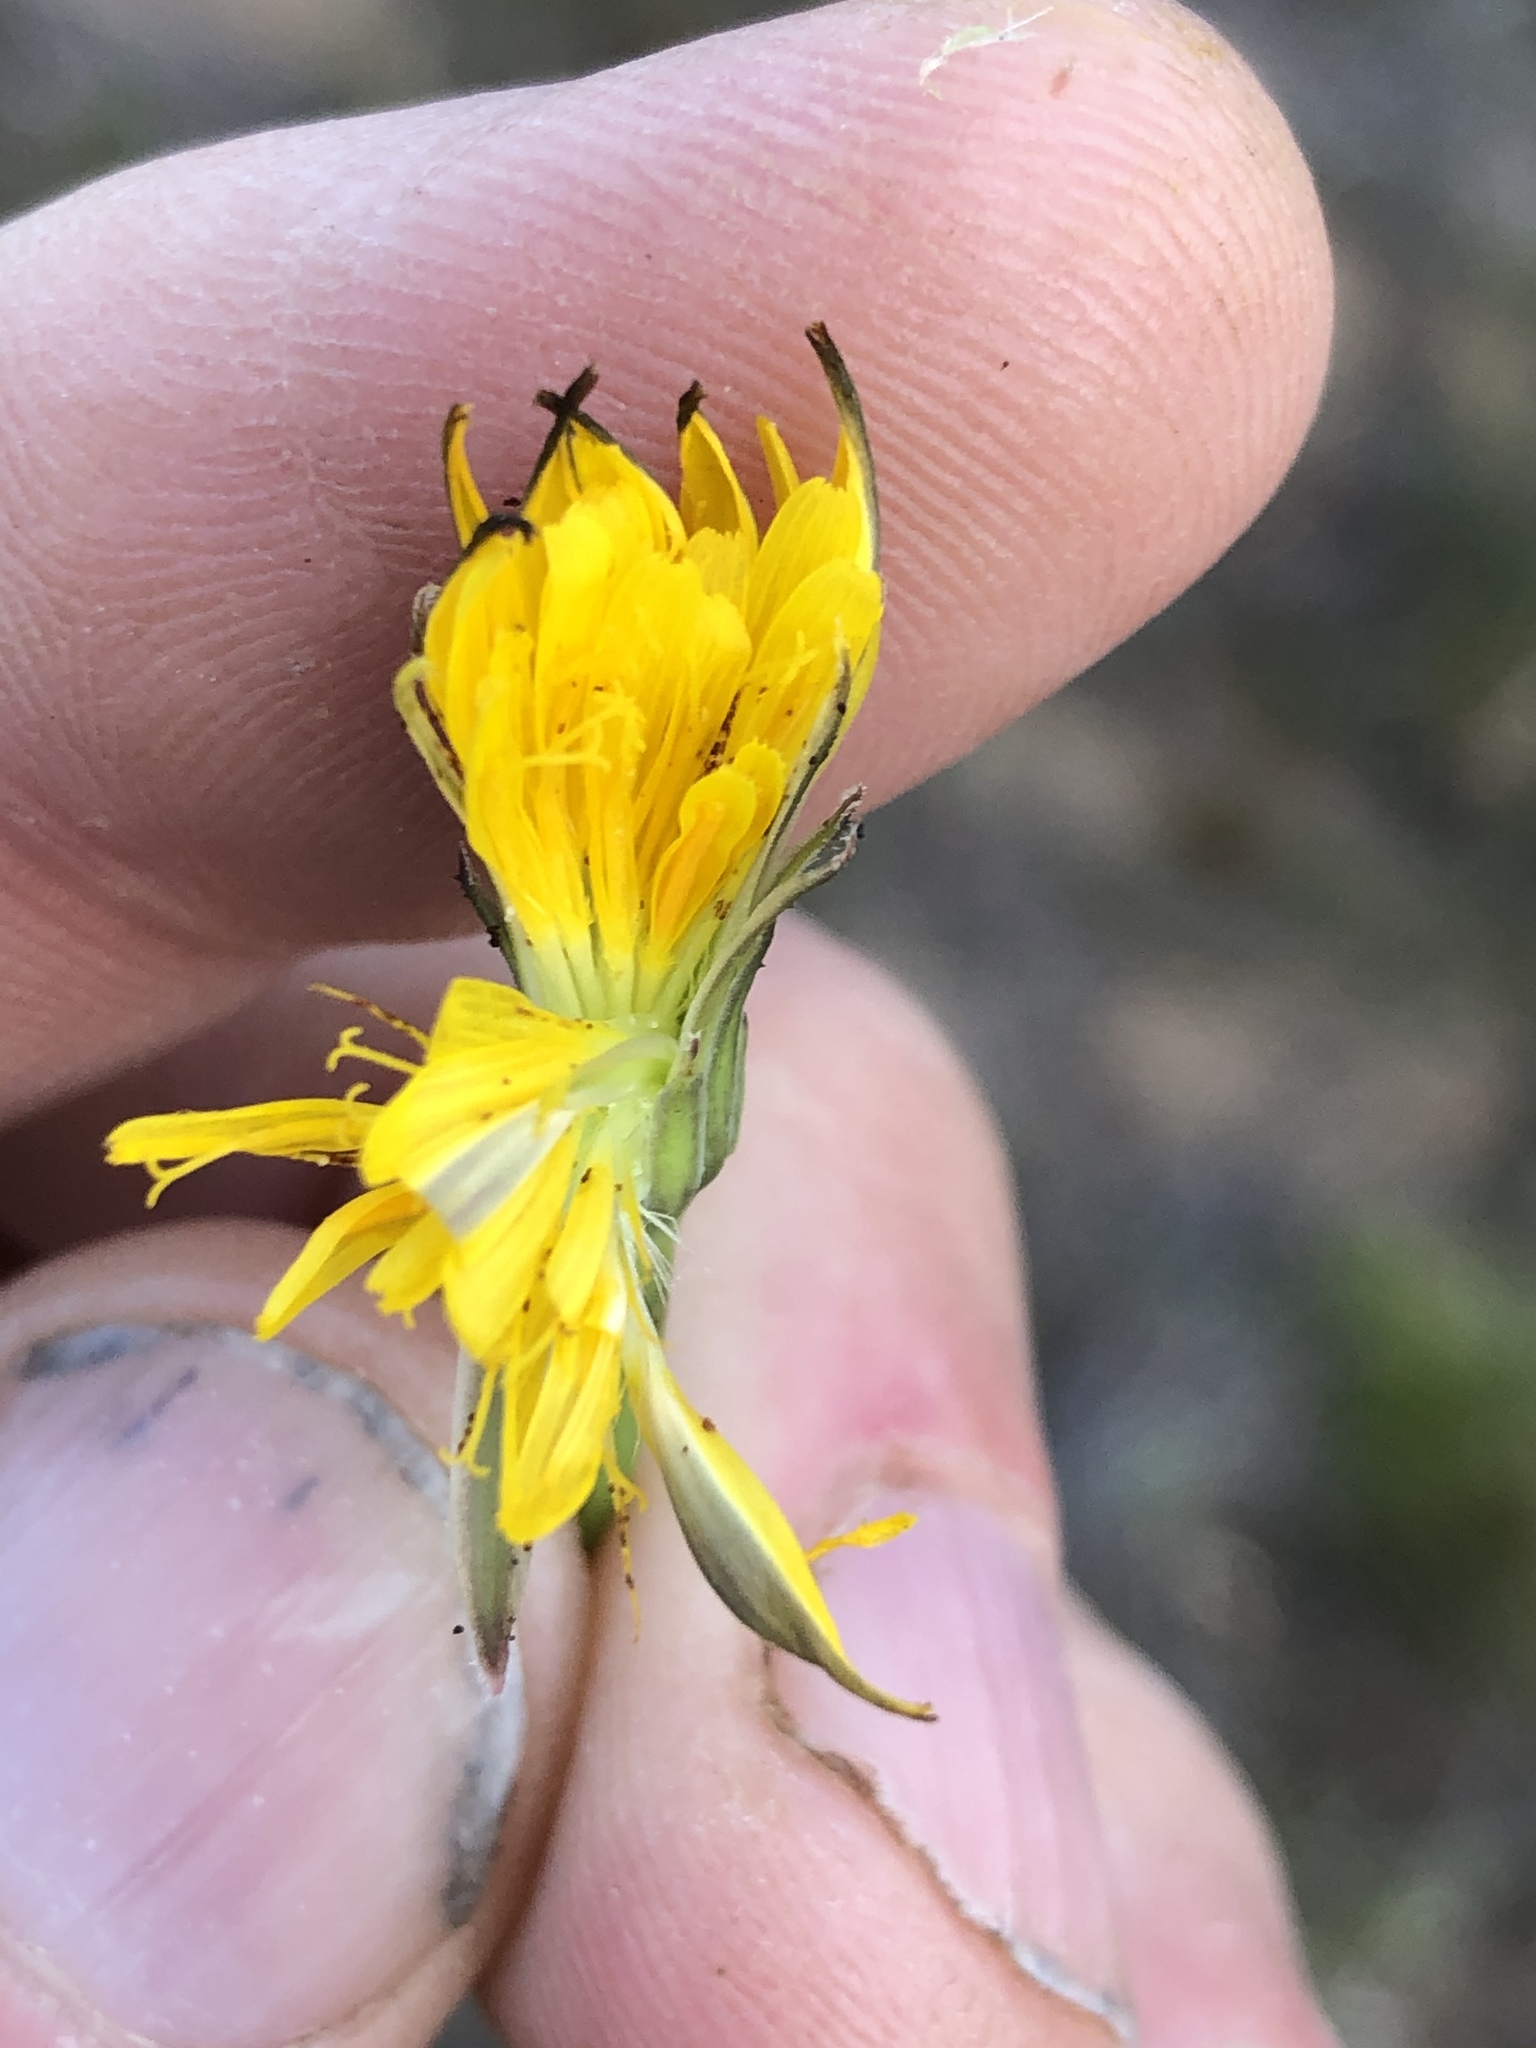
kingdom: Plantae
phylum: Tracheophyta
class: Magnoliopsida
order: Asterales
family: Asteraceae
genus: Hypochaeris
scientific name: Hypochaeris radicata
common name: Flatweed
